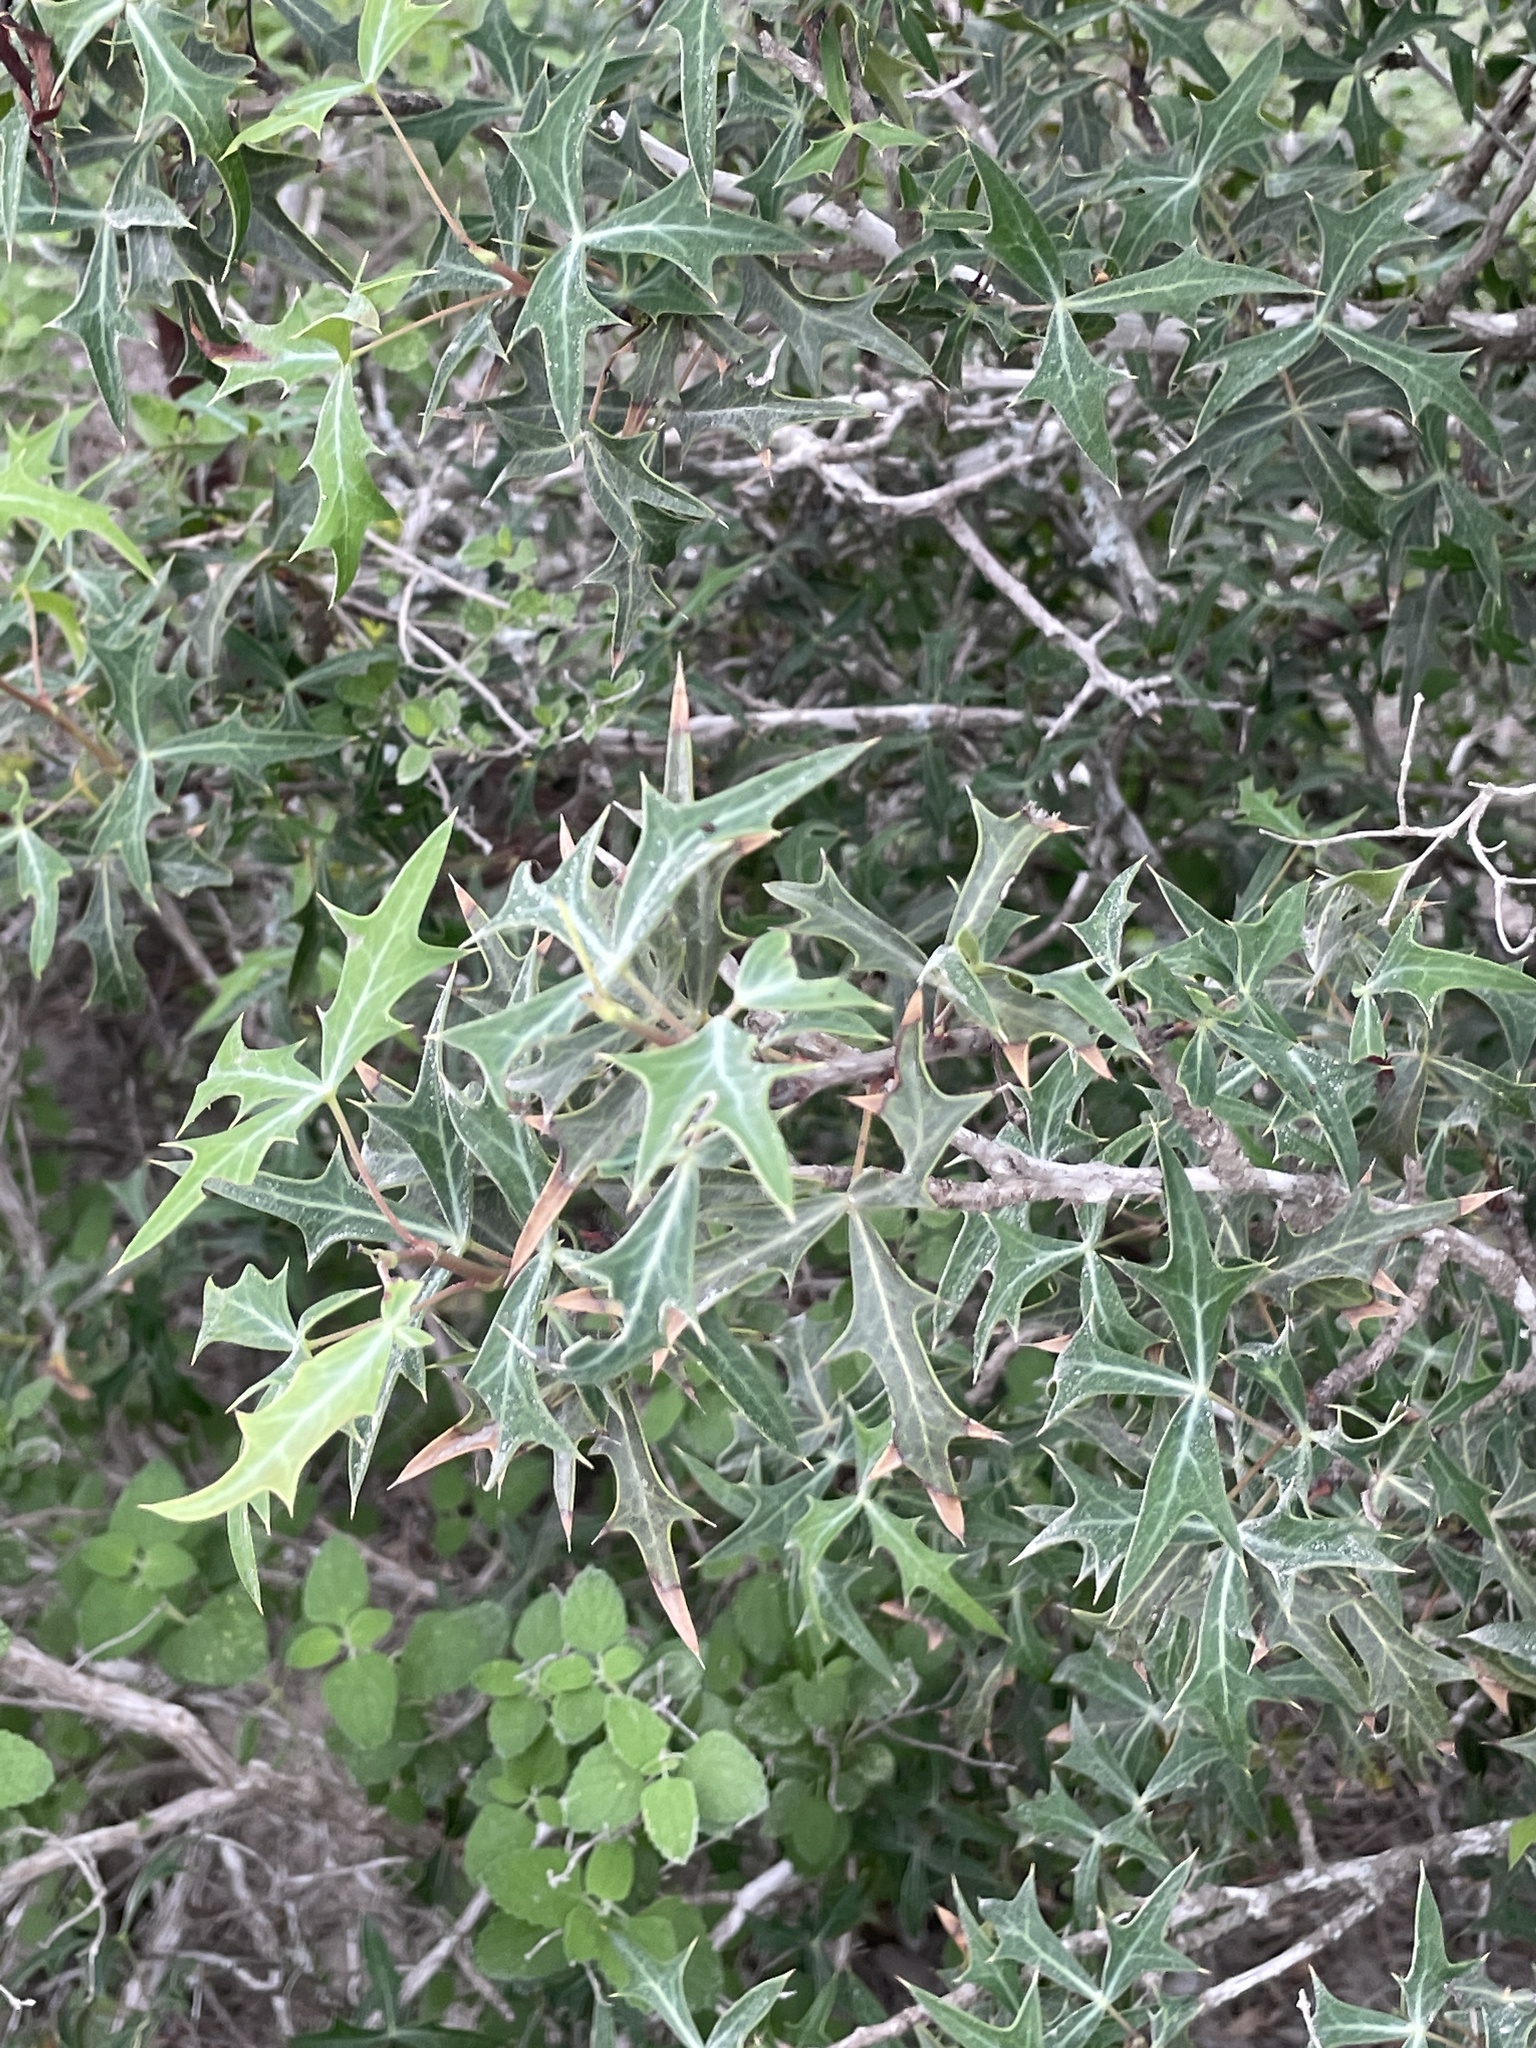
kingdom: Plantae
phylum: Tracheophyta
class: Magnoliopsida
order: Ranunculales
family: Berberidaceae
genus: Alloberberis
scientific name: Alloberberis trifoliolata
